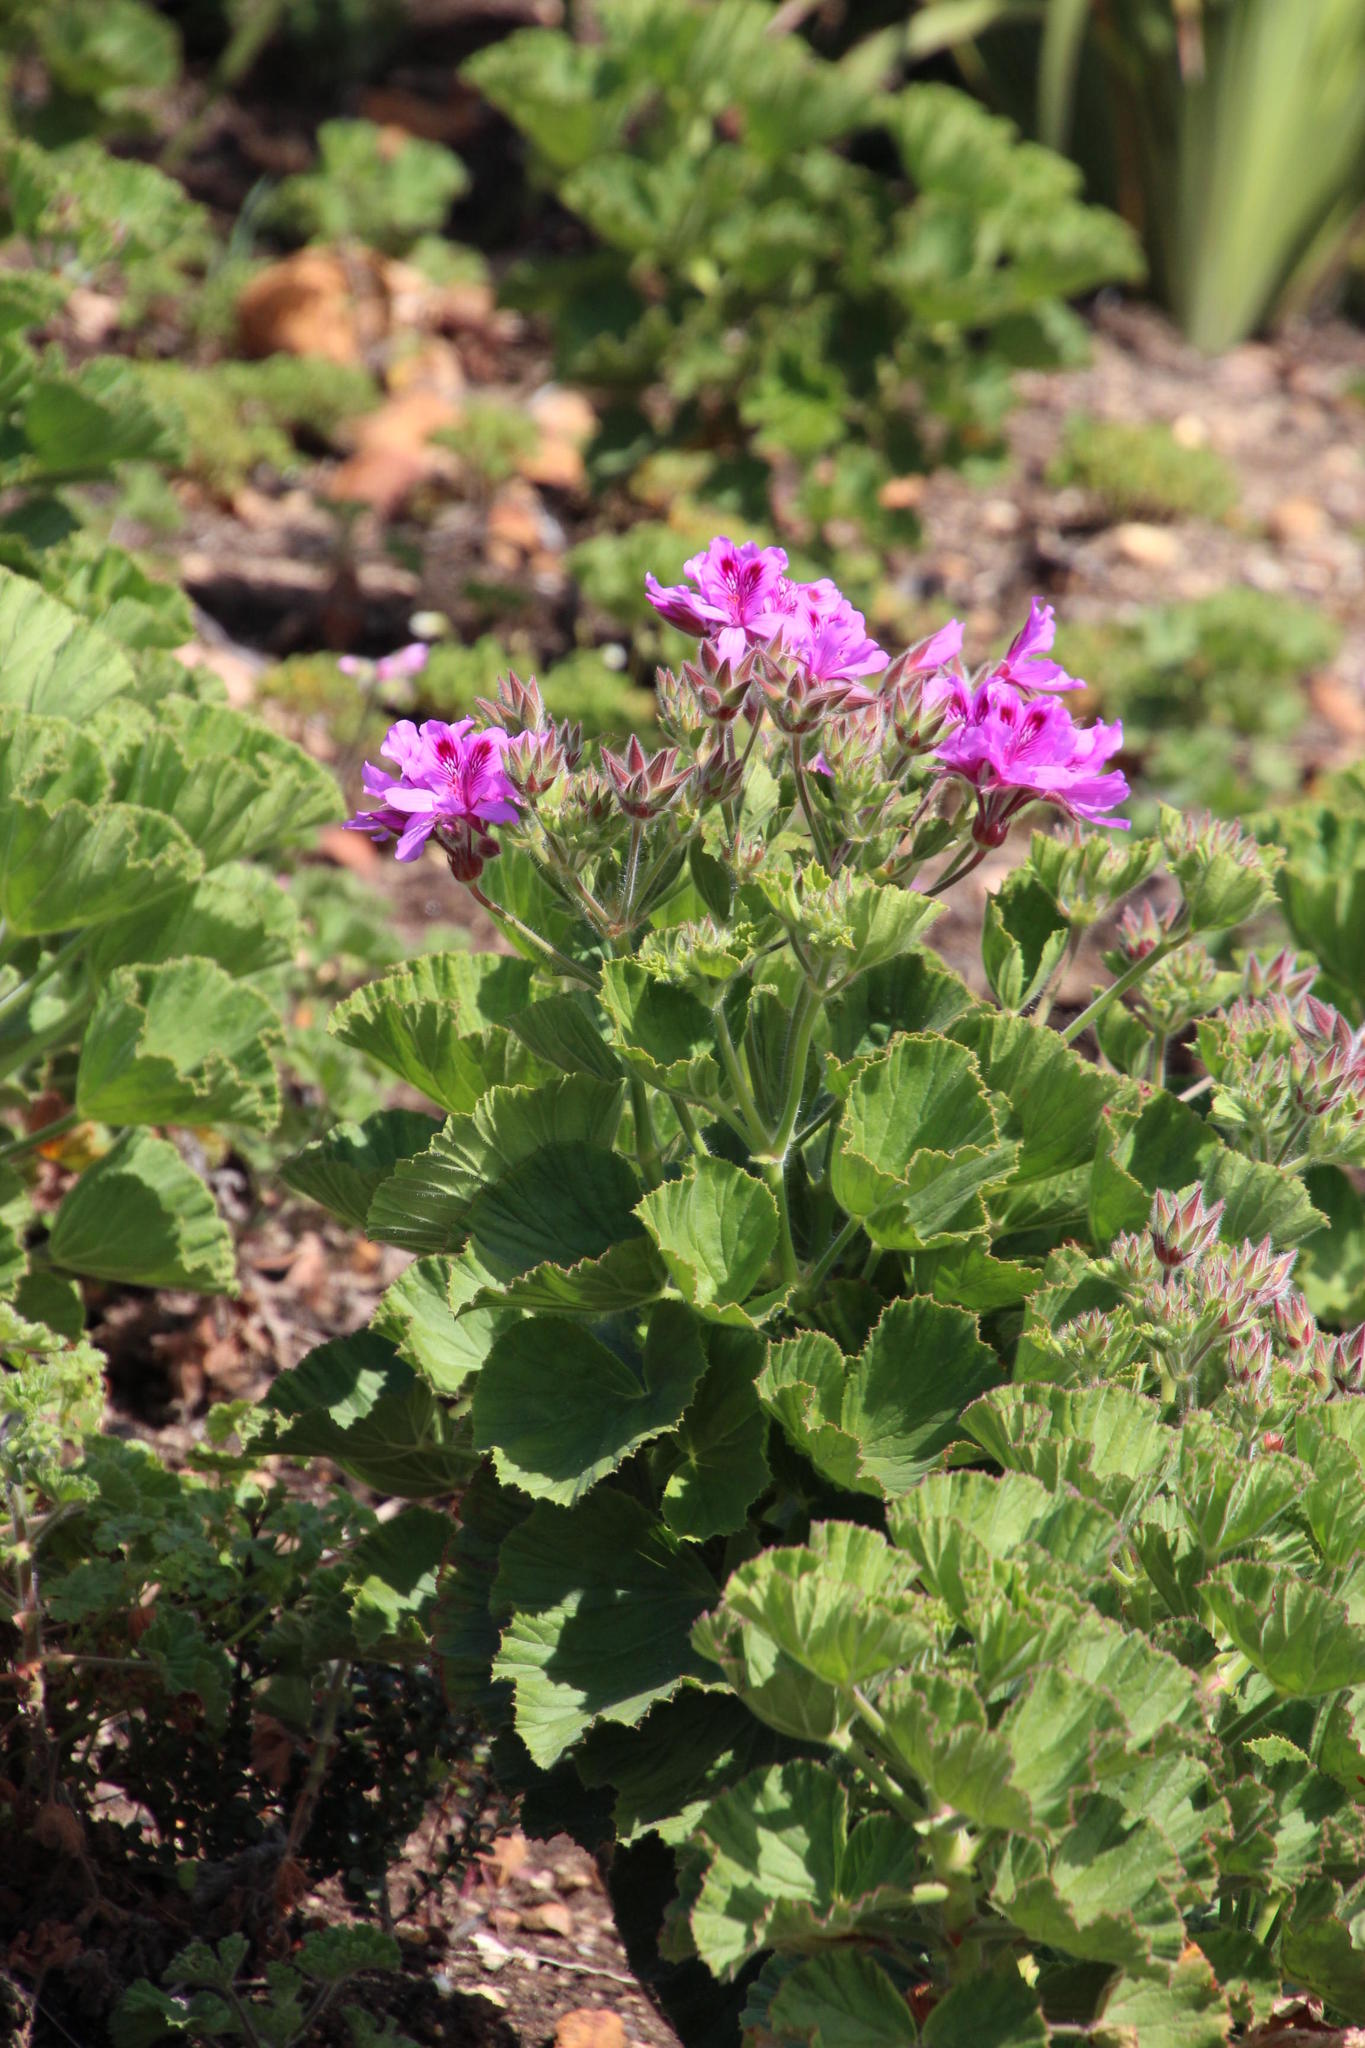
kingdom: Plantae
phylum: Tracheophyta
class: Magnoliopsida
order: Geraniales
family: Geraniaceae
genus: Pelargonium
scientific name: Pelargonium cucullatum
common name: Tree pelargonium
